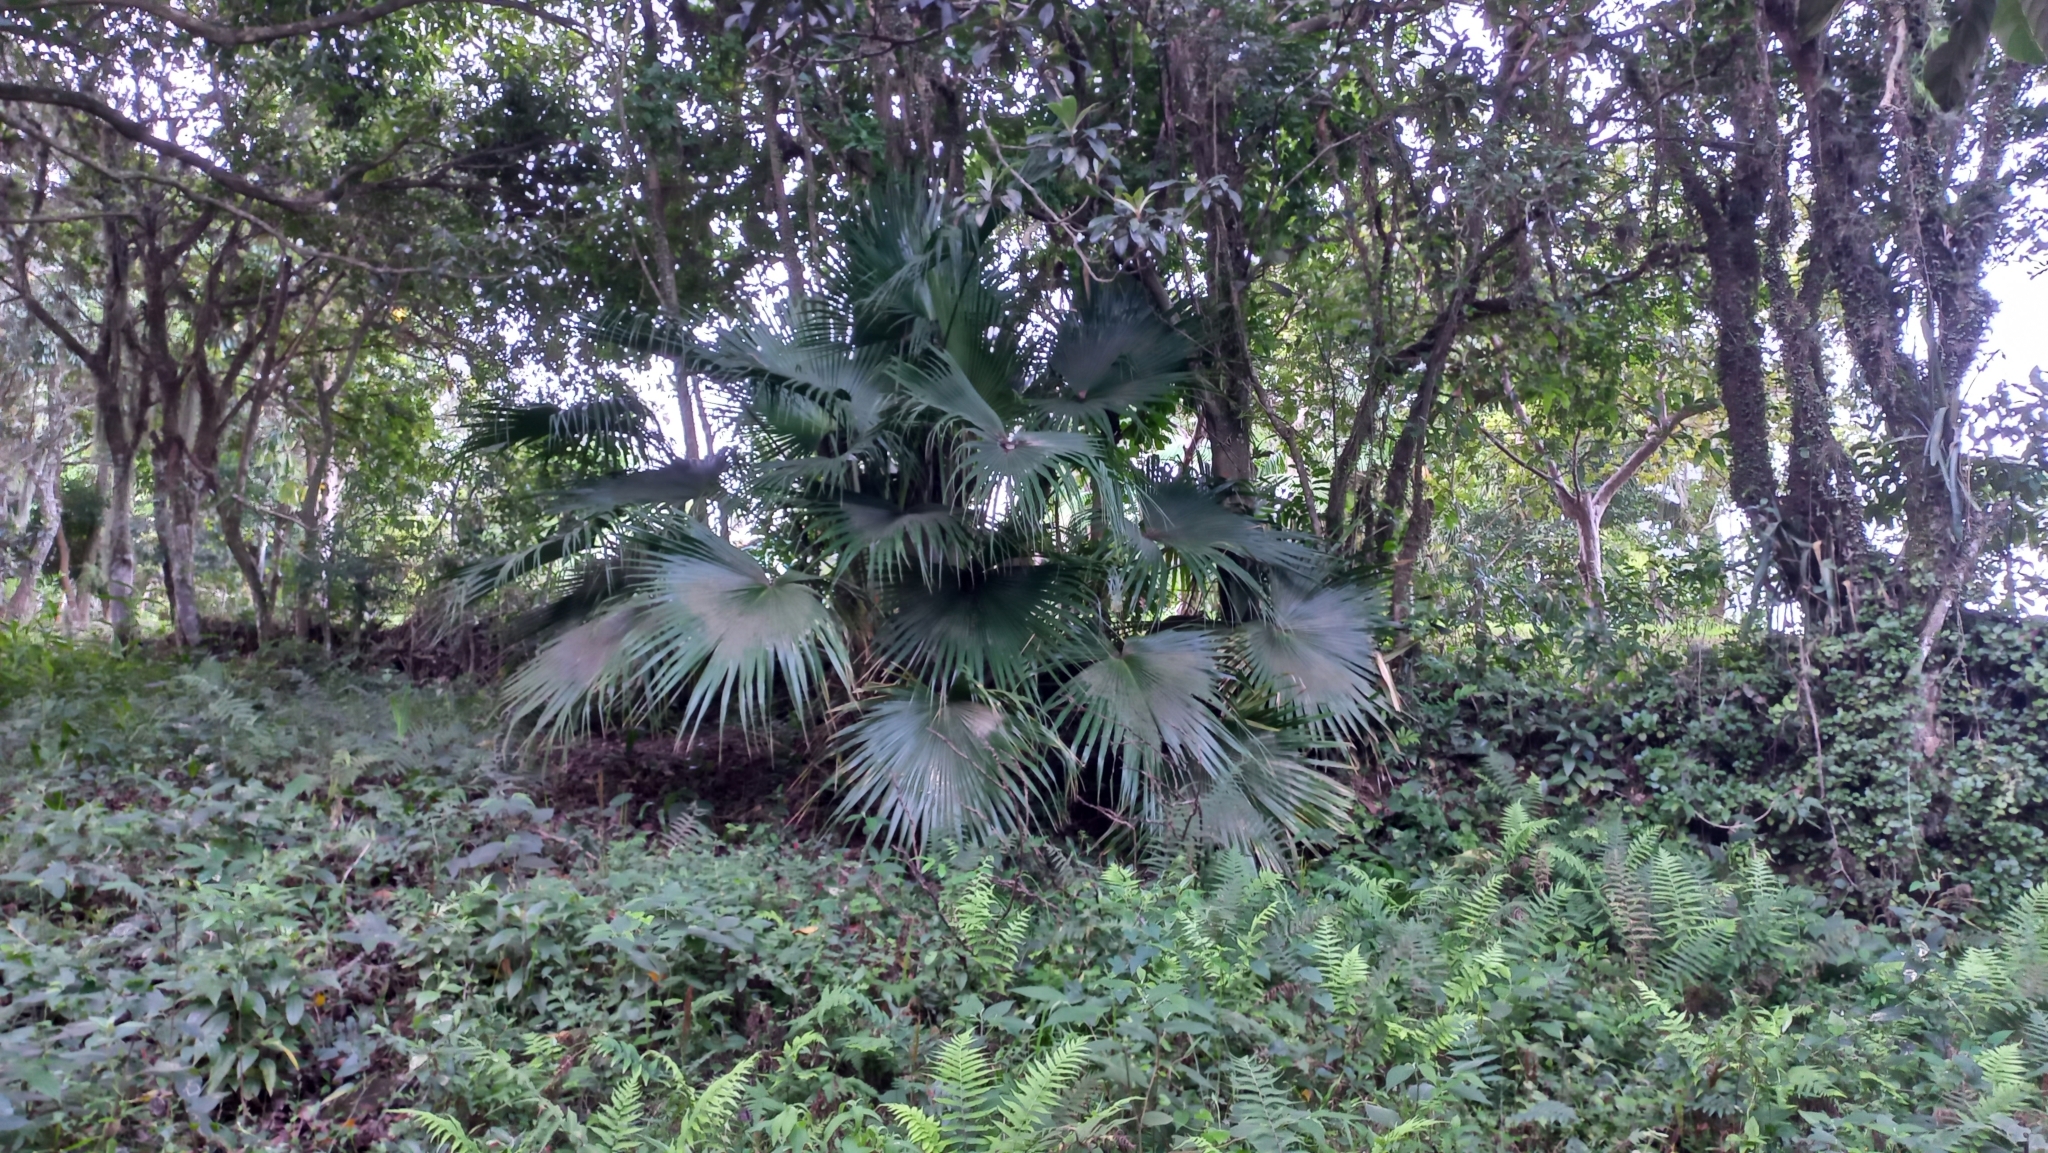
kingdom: Plantae
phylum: Tracheophyta
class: Liliopsida
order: Arecales
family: Arecaceae
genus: Livistona
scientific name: Livistona chinensis
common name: Fountain palm
